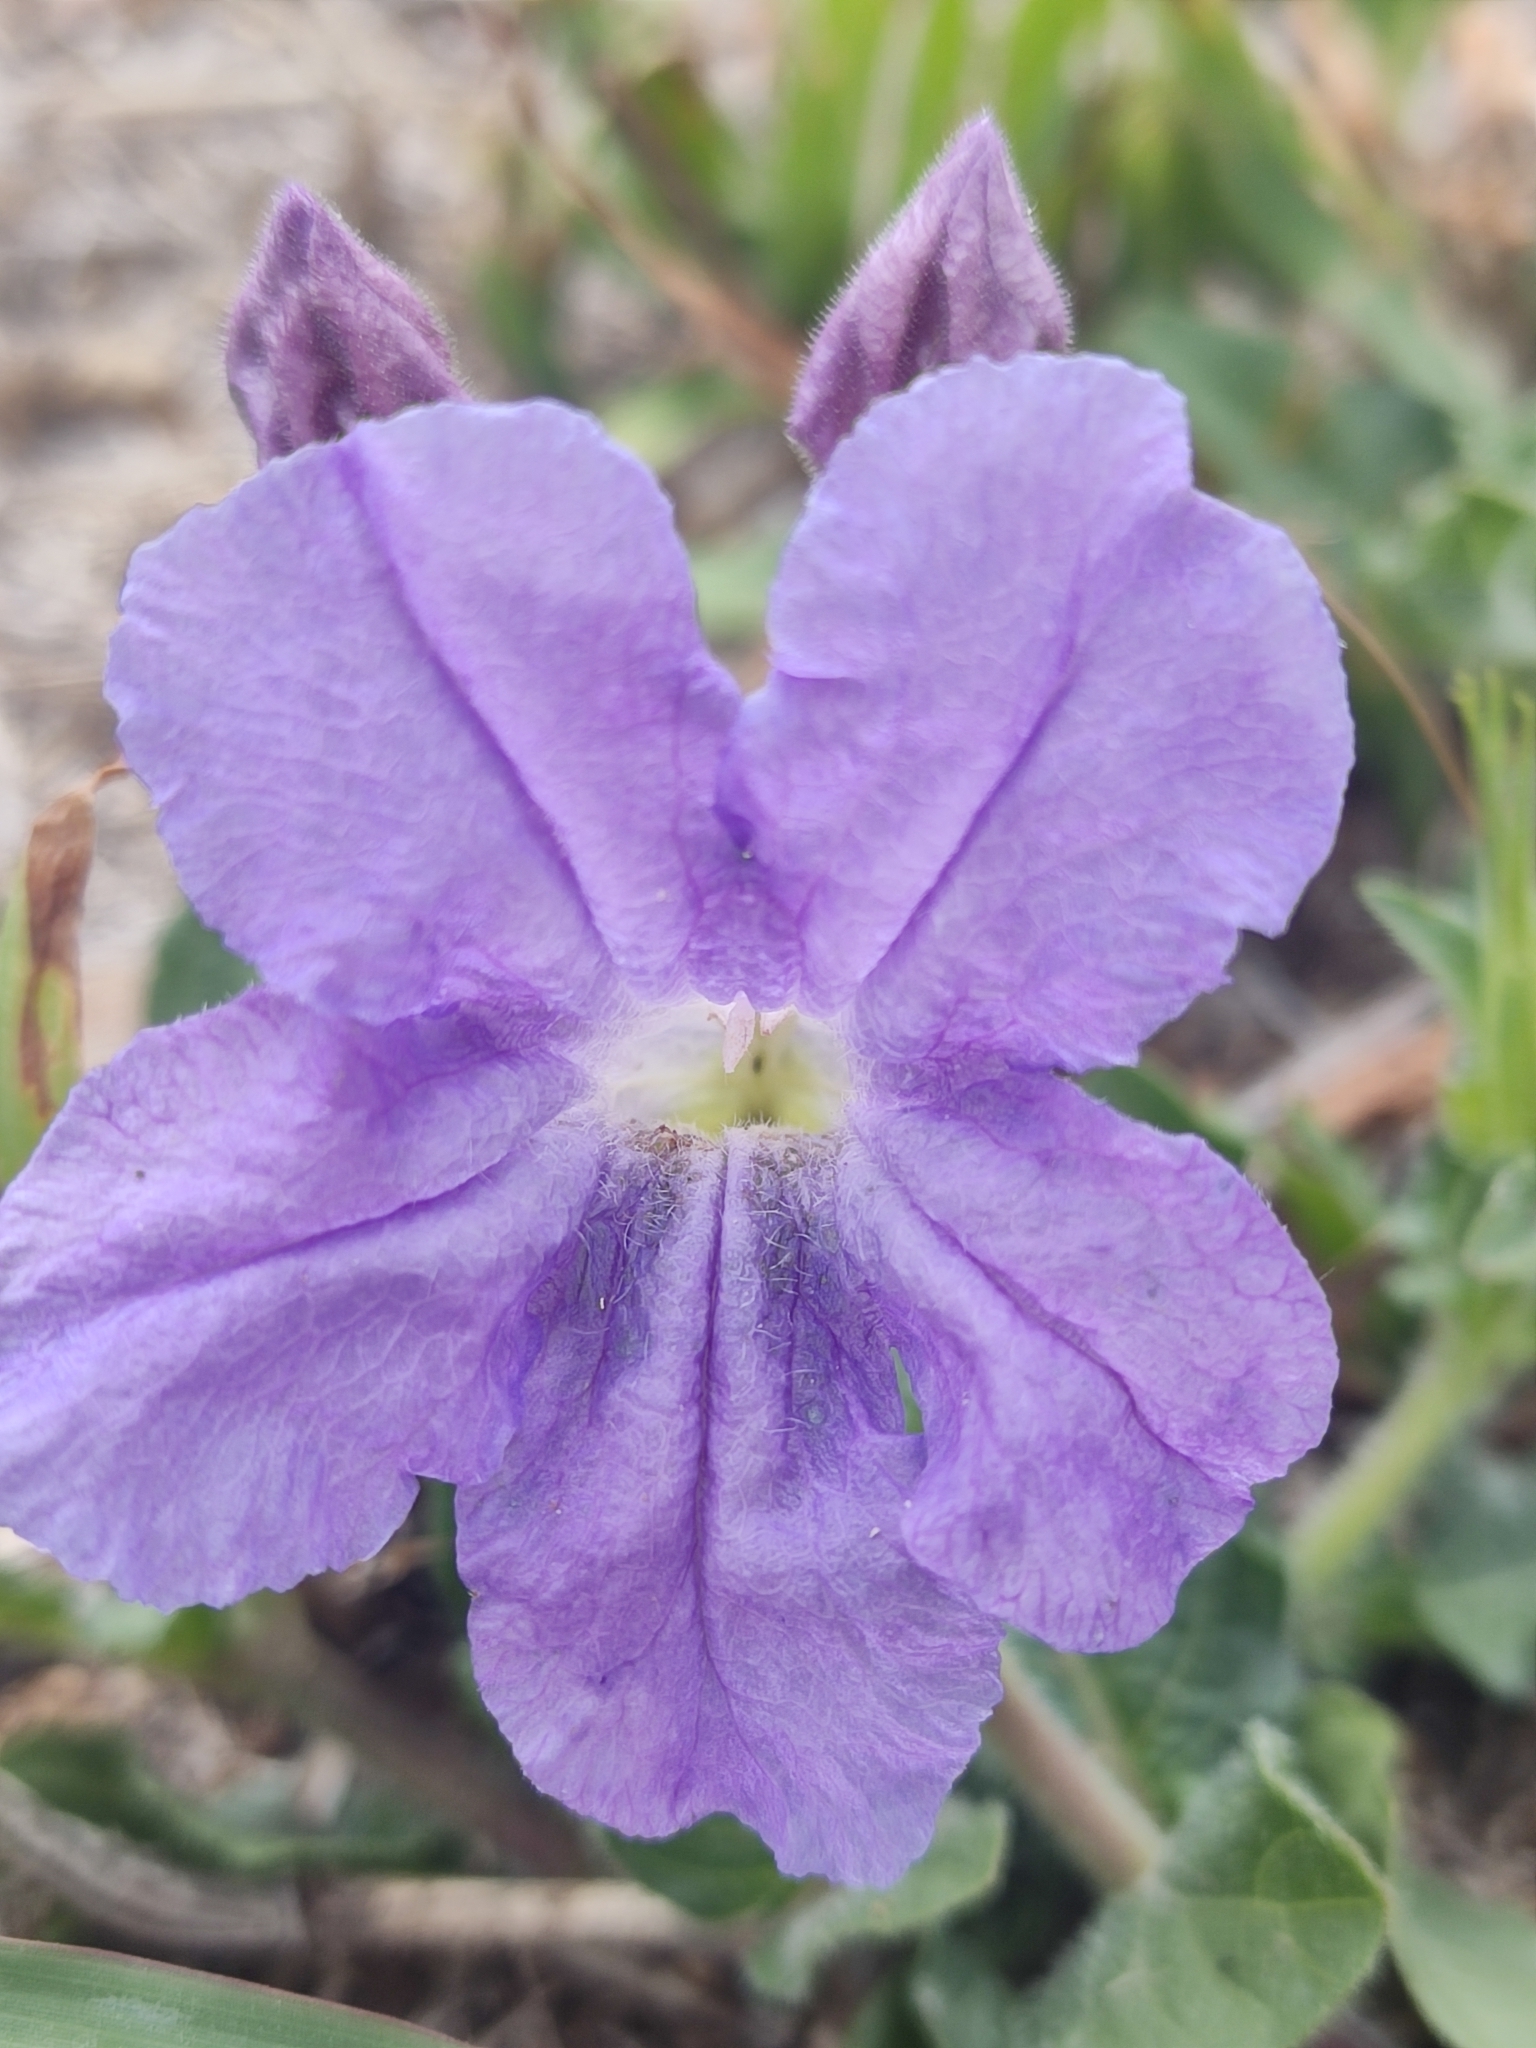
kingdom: Plantae
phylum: Tracheophyta
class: Magnoliopsida
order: Lamiales
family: Acanthaceae
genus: Ruellia
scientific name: Ruellia lactea
